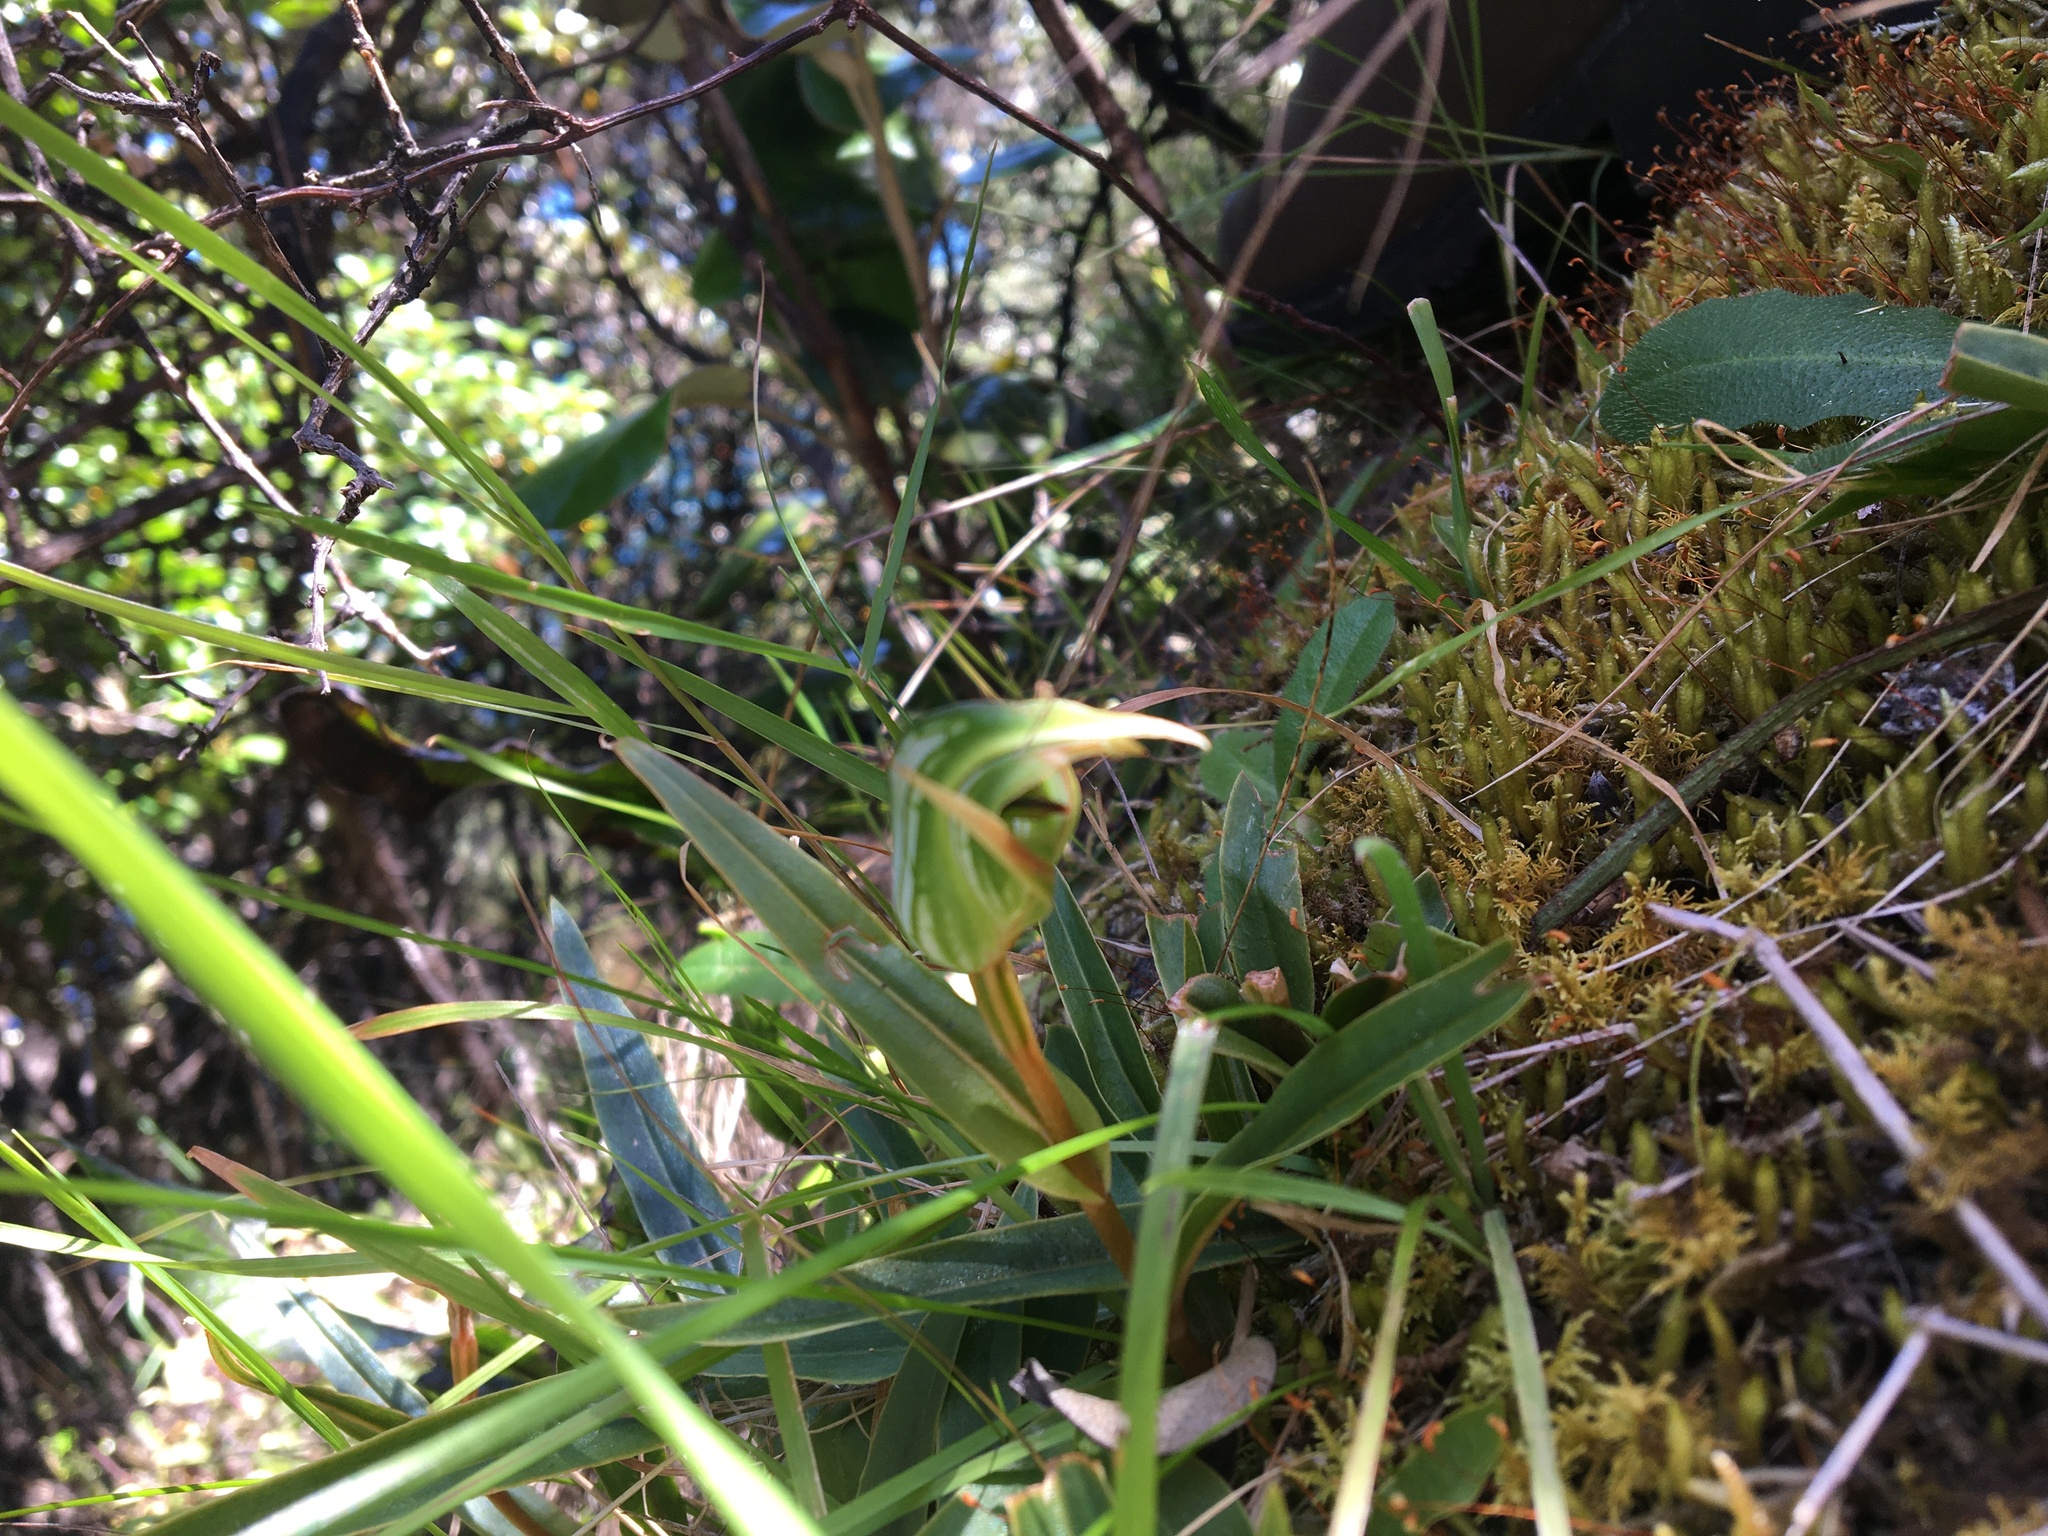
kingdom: Plantae
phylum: Tracheophyta
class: Liliopsida
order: Asparagales
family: Orchidaceae
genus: Pterostylis
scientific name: Pterostylis montana
